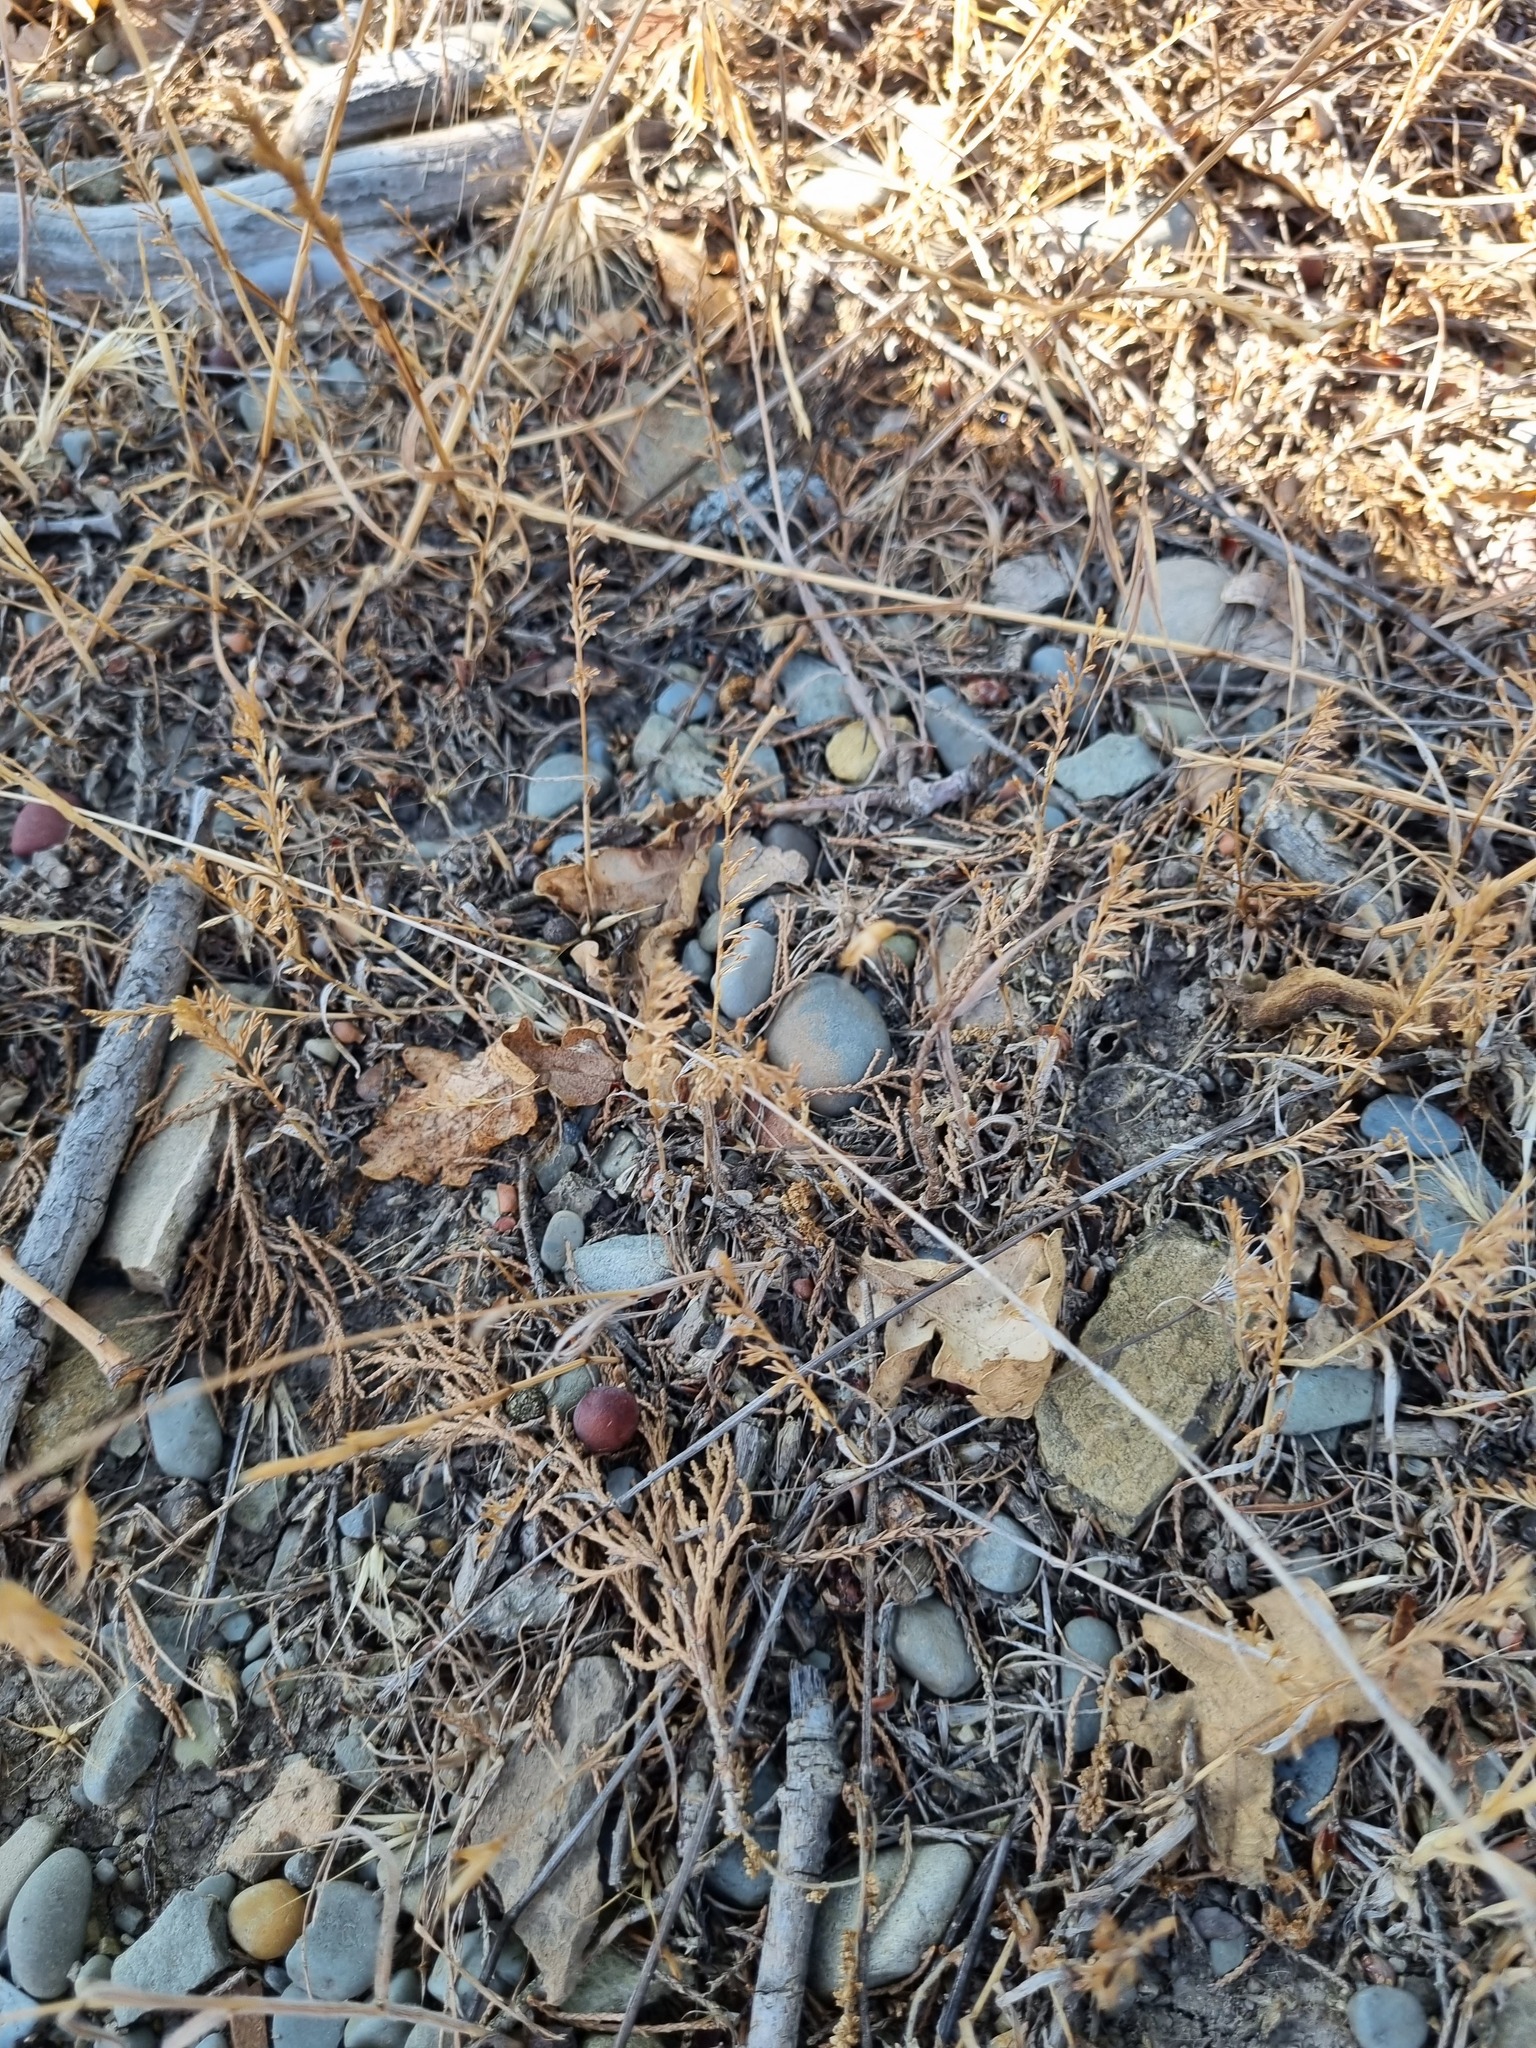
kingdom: Plantae
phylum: Tracheophyta
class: Liliopsida
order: Poales
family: Poaceae
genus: Catapodium
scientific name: Catapodium rigidum
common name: Fern-grass
